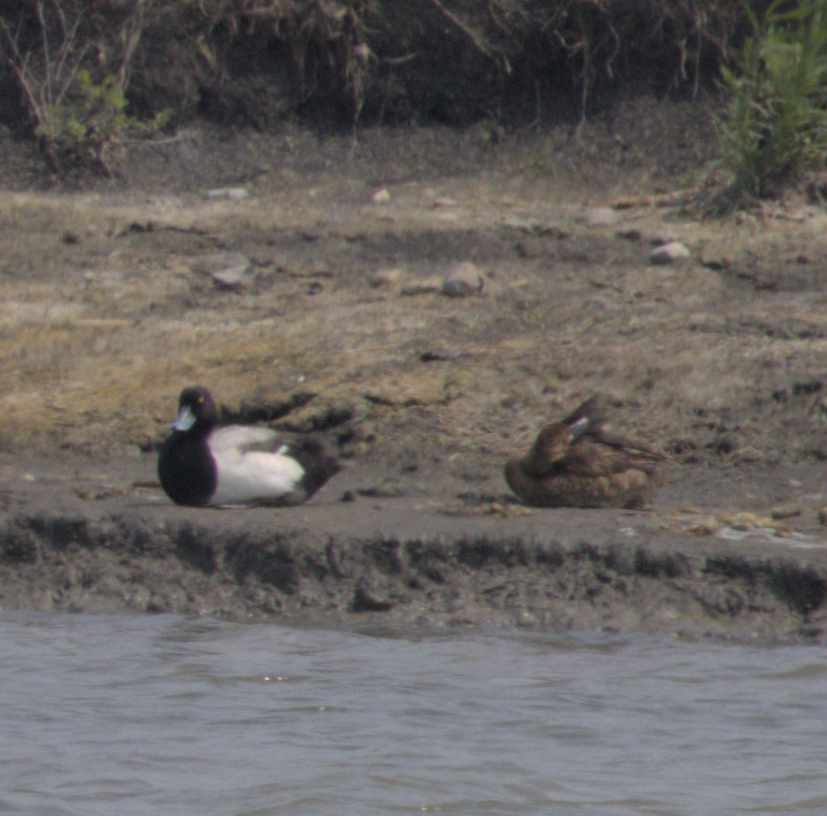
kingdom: Animalia
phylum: Chordata
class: Aves
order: Anseriformes
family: Anatidae
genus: Aythya
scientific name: Aythya affinis
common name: Lesser scaup
